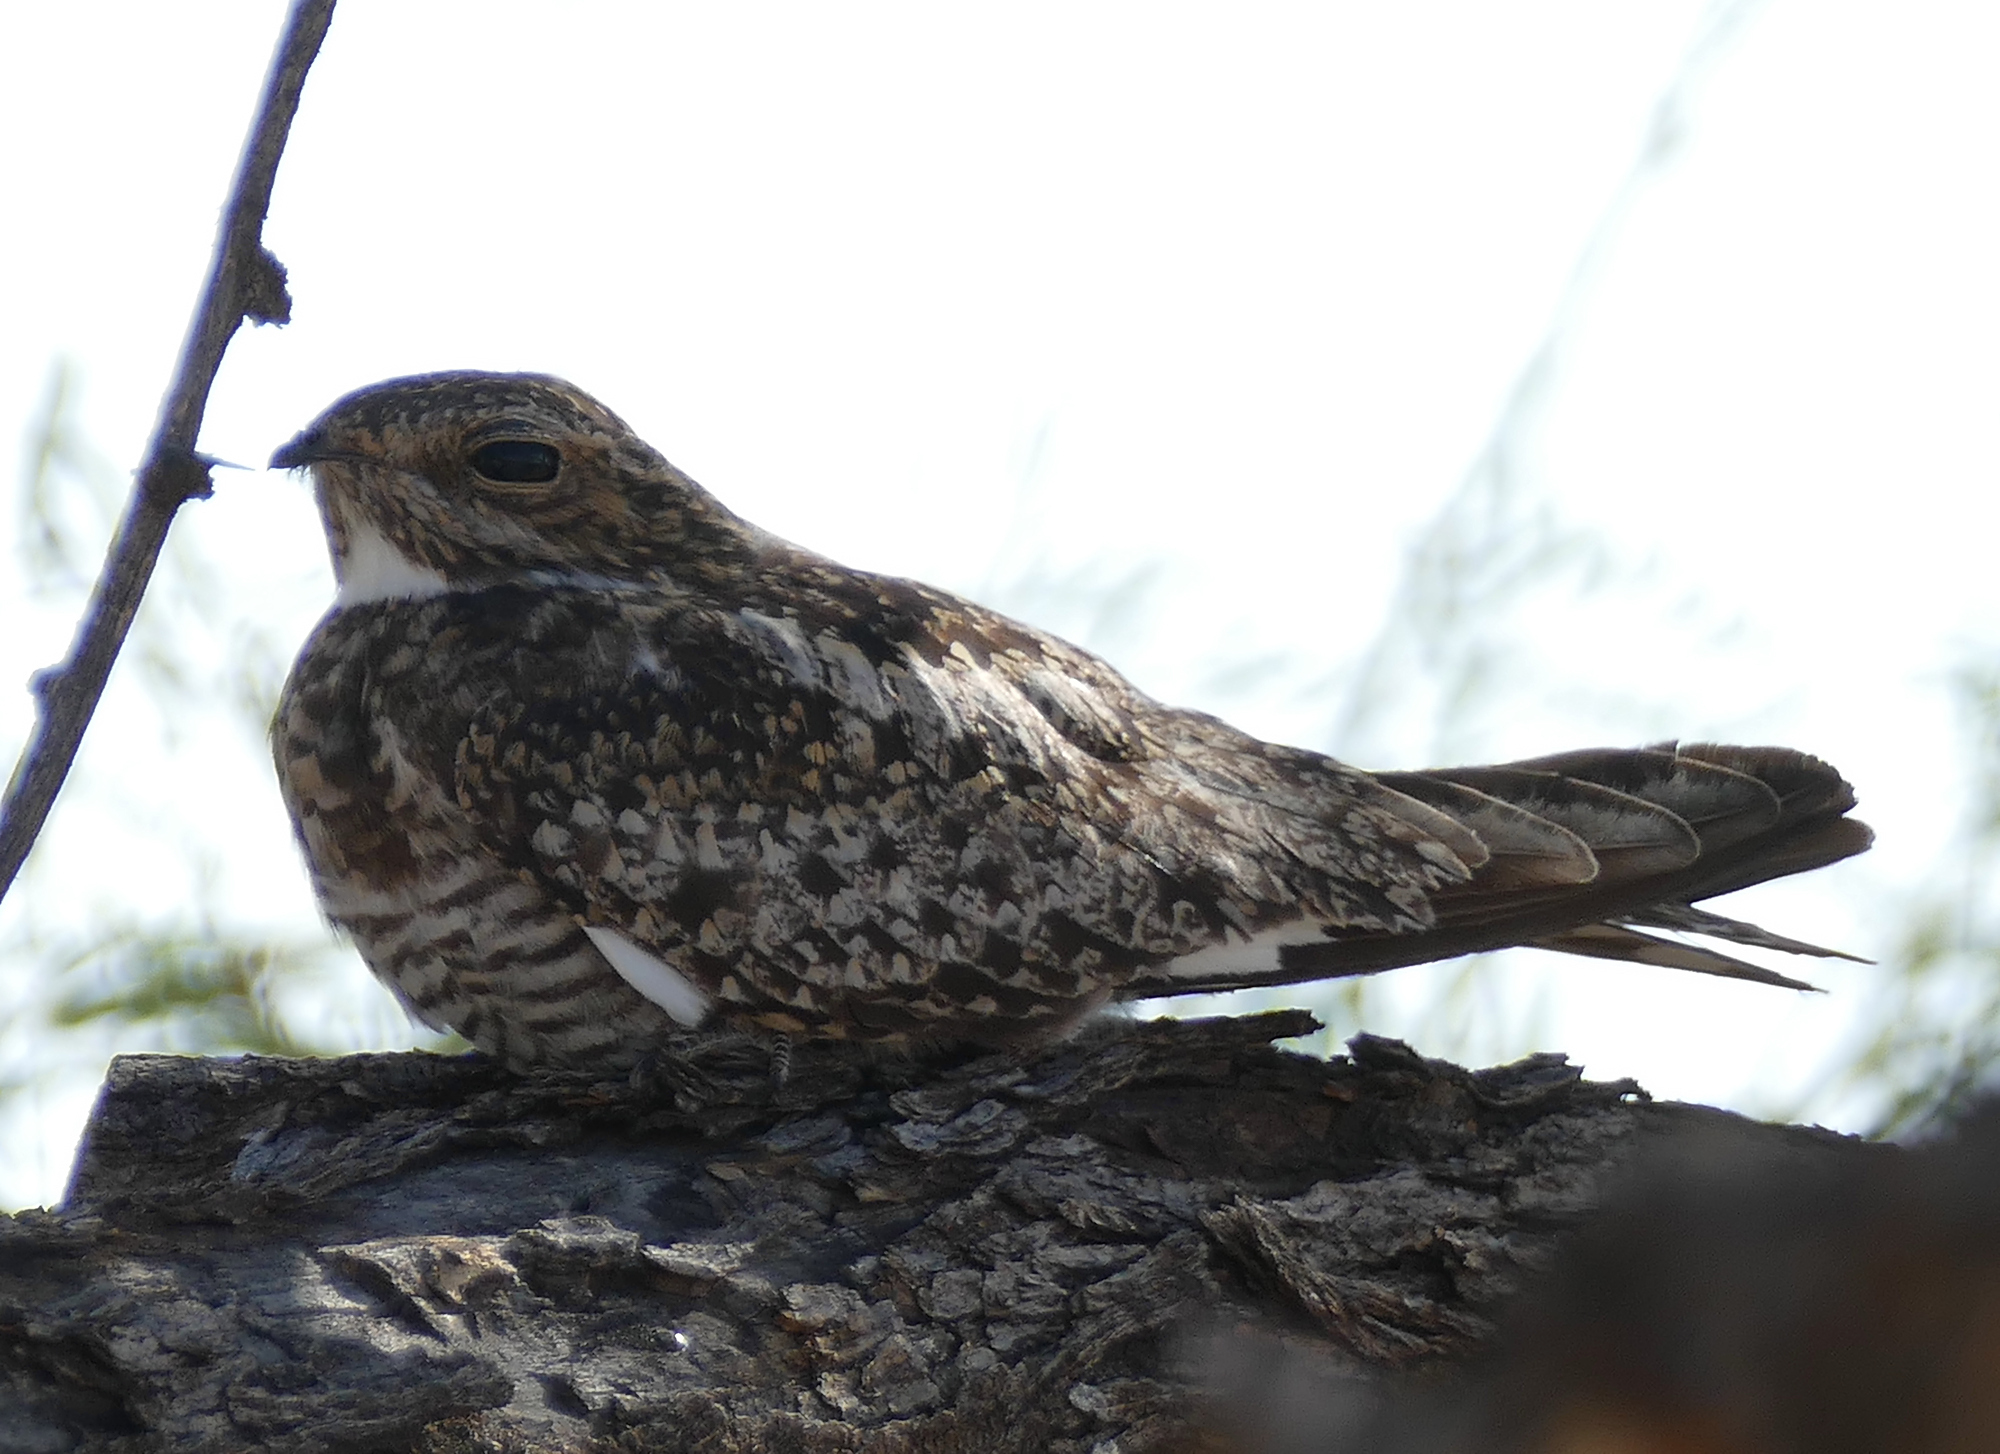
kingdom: Animalia
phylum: Chordata
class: Aves
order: Caprimulgiformes
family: Caprimulgidae
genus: Chordeiles
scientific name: Chordeiles minor
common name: Common nighthawk
